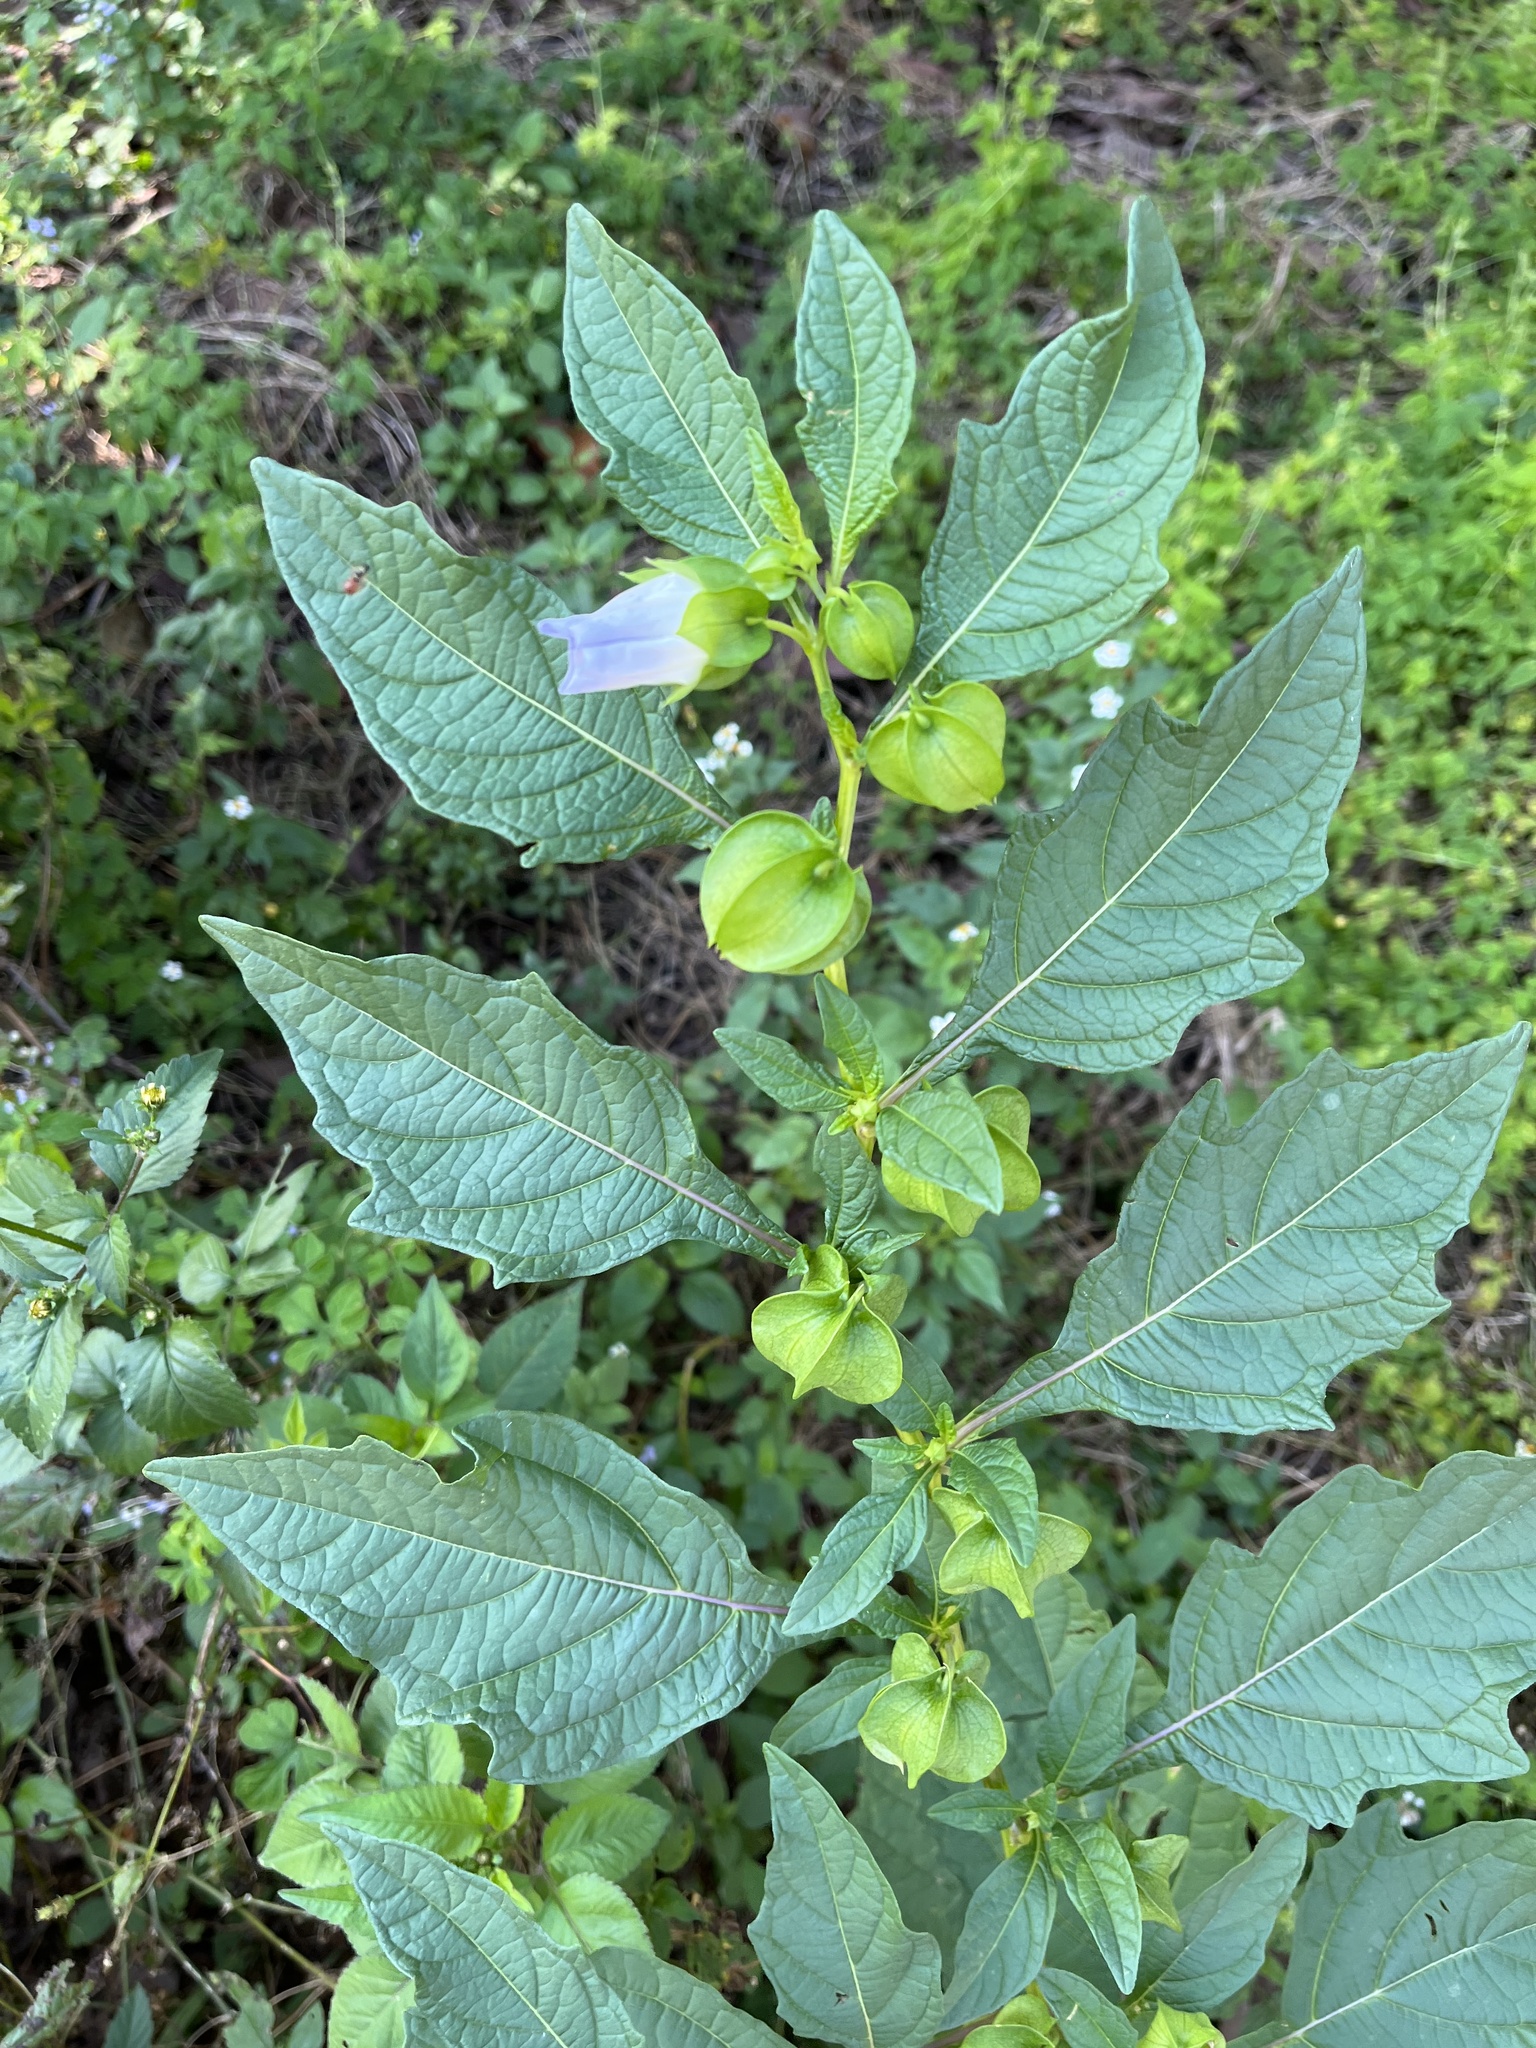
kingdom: Plantae
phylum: Tracheophyta
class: Magnoliopsida
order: Solanales
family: Solanaceae
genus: Nicandra
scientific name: Nicandra physalodes
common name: Apple-of-peru
